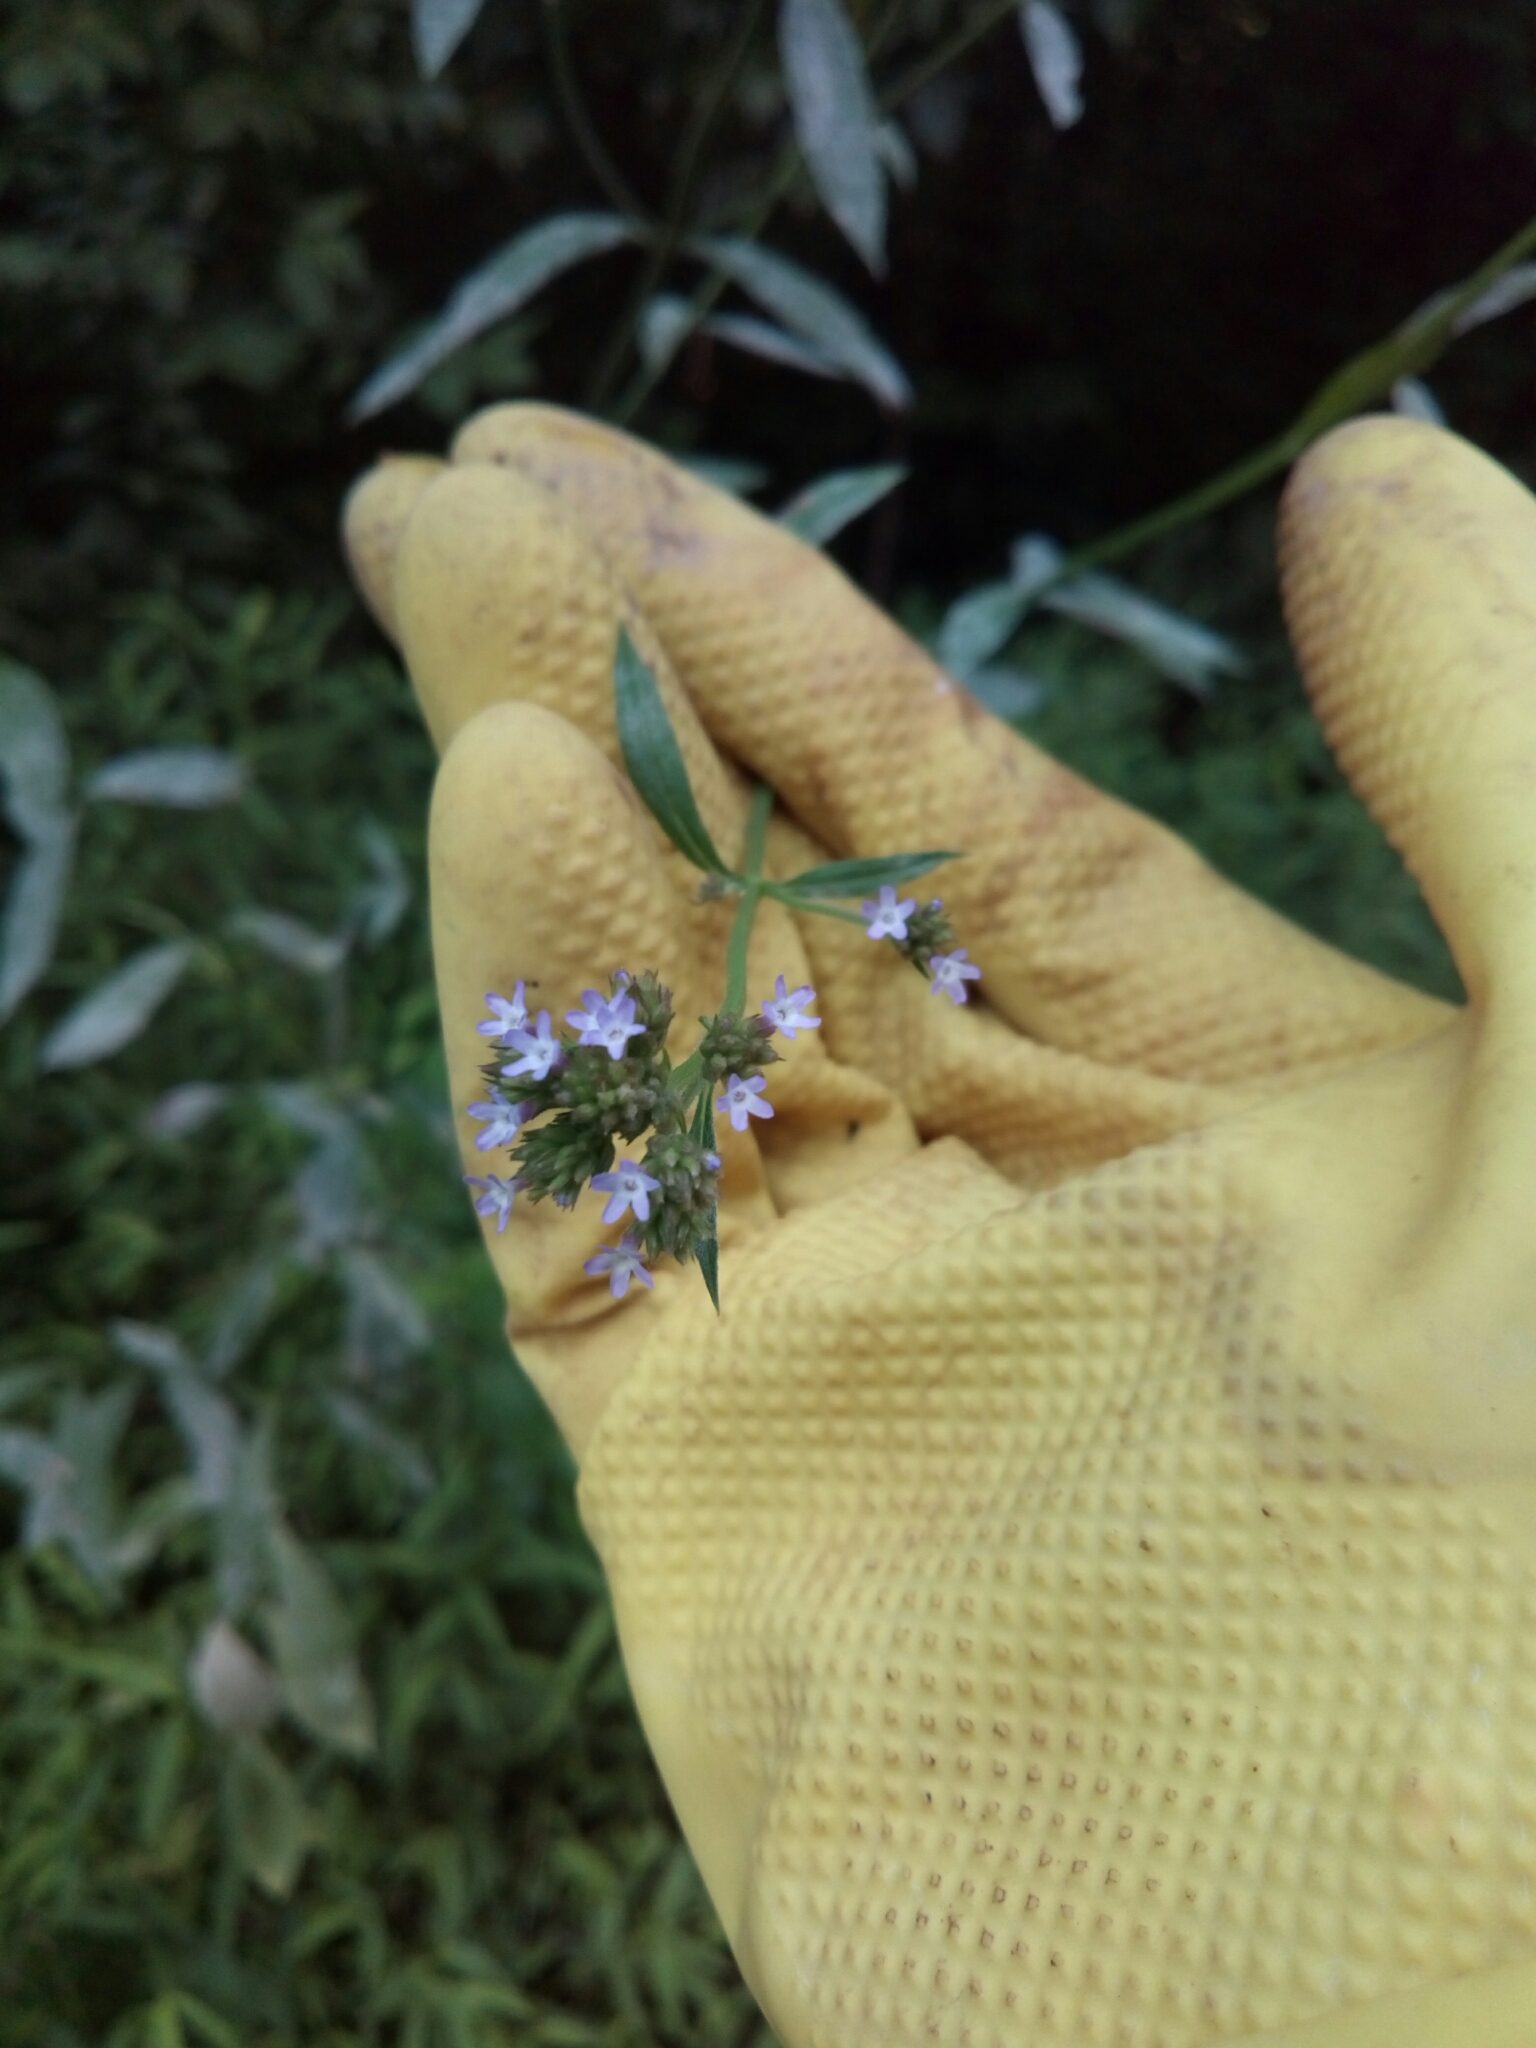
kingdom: Plantae
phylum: Tracheophyta
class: Magnoliopsida
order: Lamiales
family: Verbenaceae
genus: Verbena
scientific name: Verbena brasiliensis
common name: Brazilian vervain
